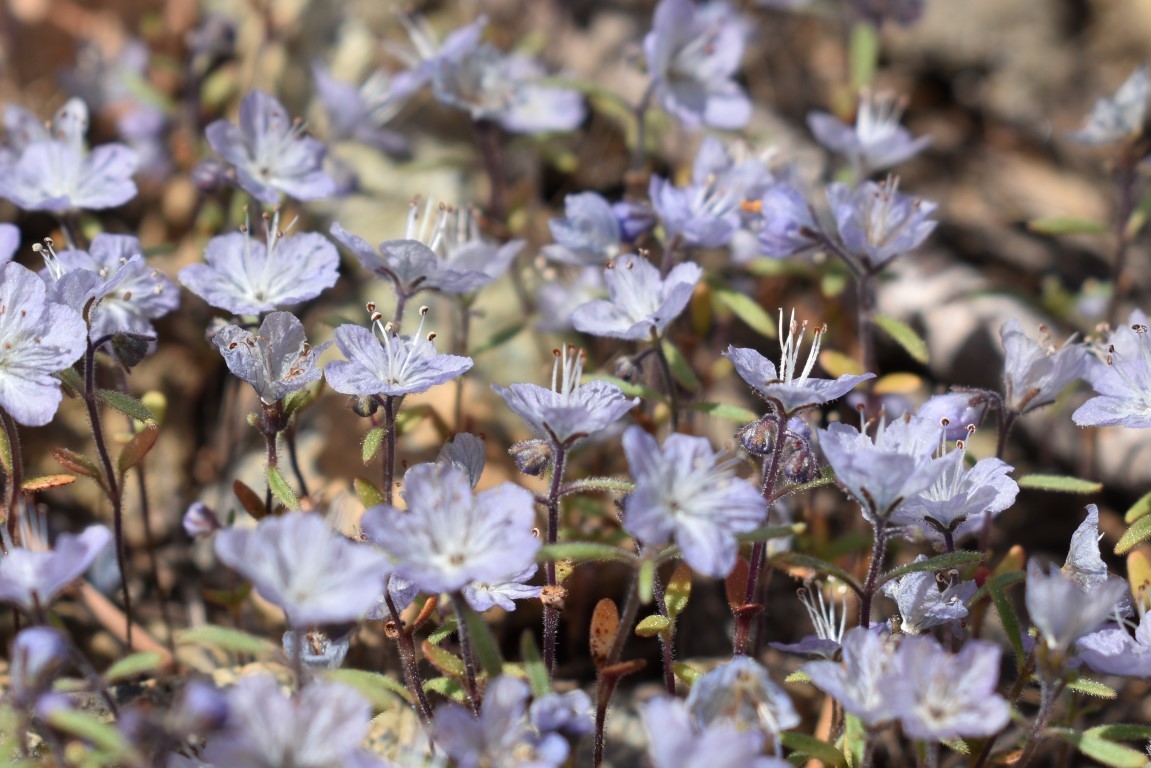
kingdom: Plantae
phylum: Tracheophyta
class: Magnoliopsida
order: Boraginales
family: Hydrophyllaceae
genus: Phacelia
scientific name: Phacelia pringlei
